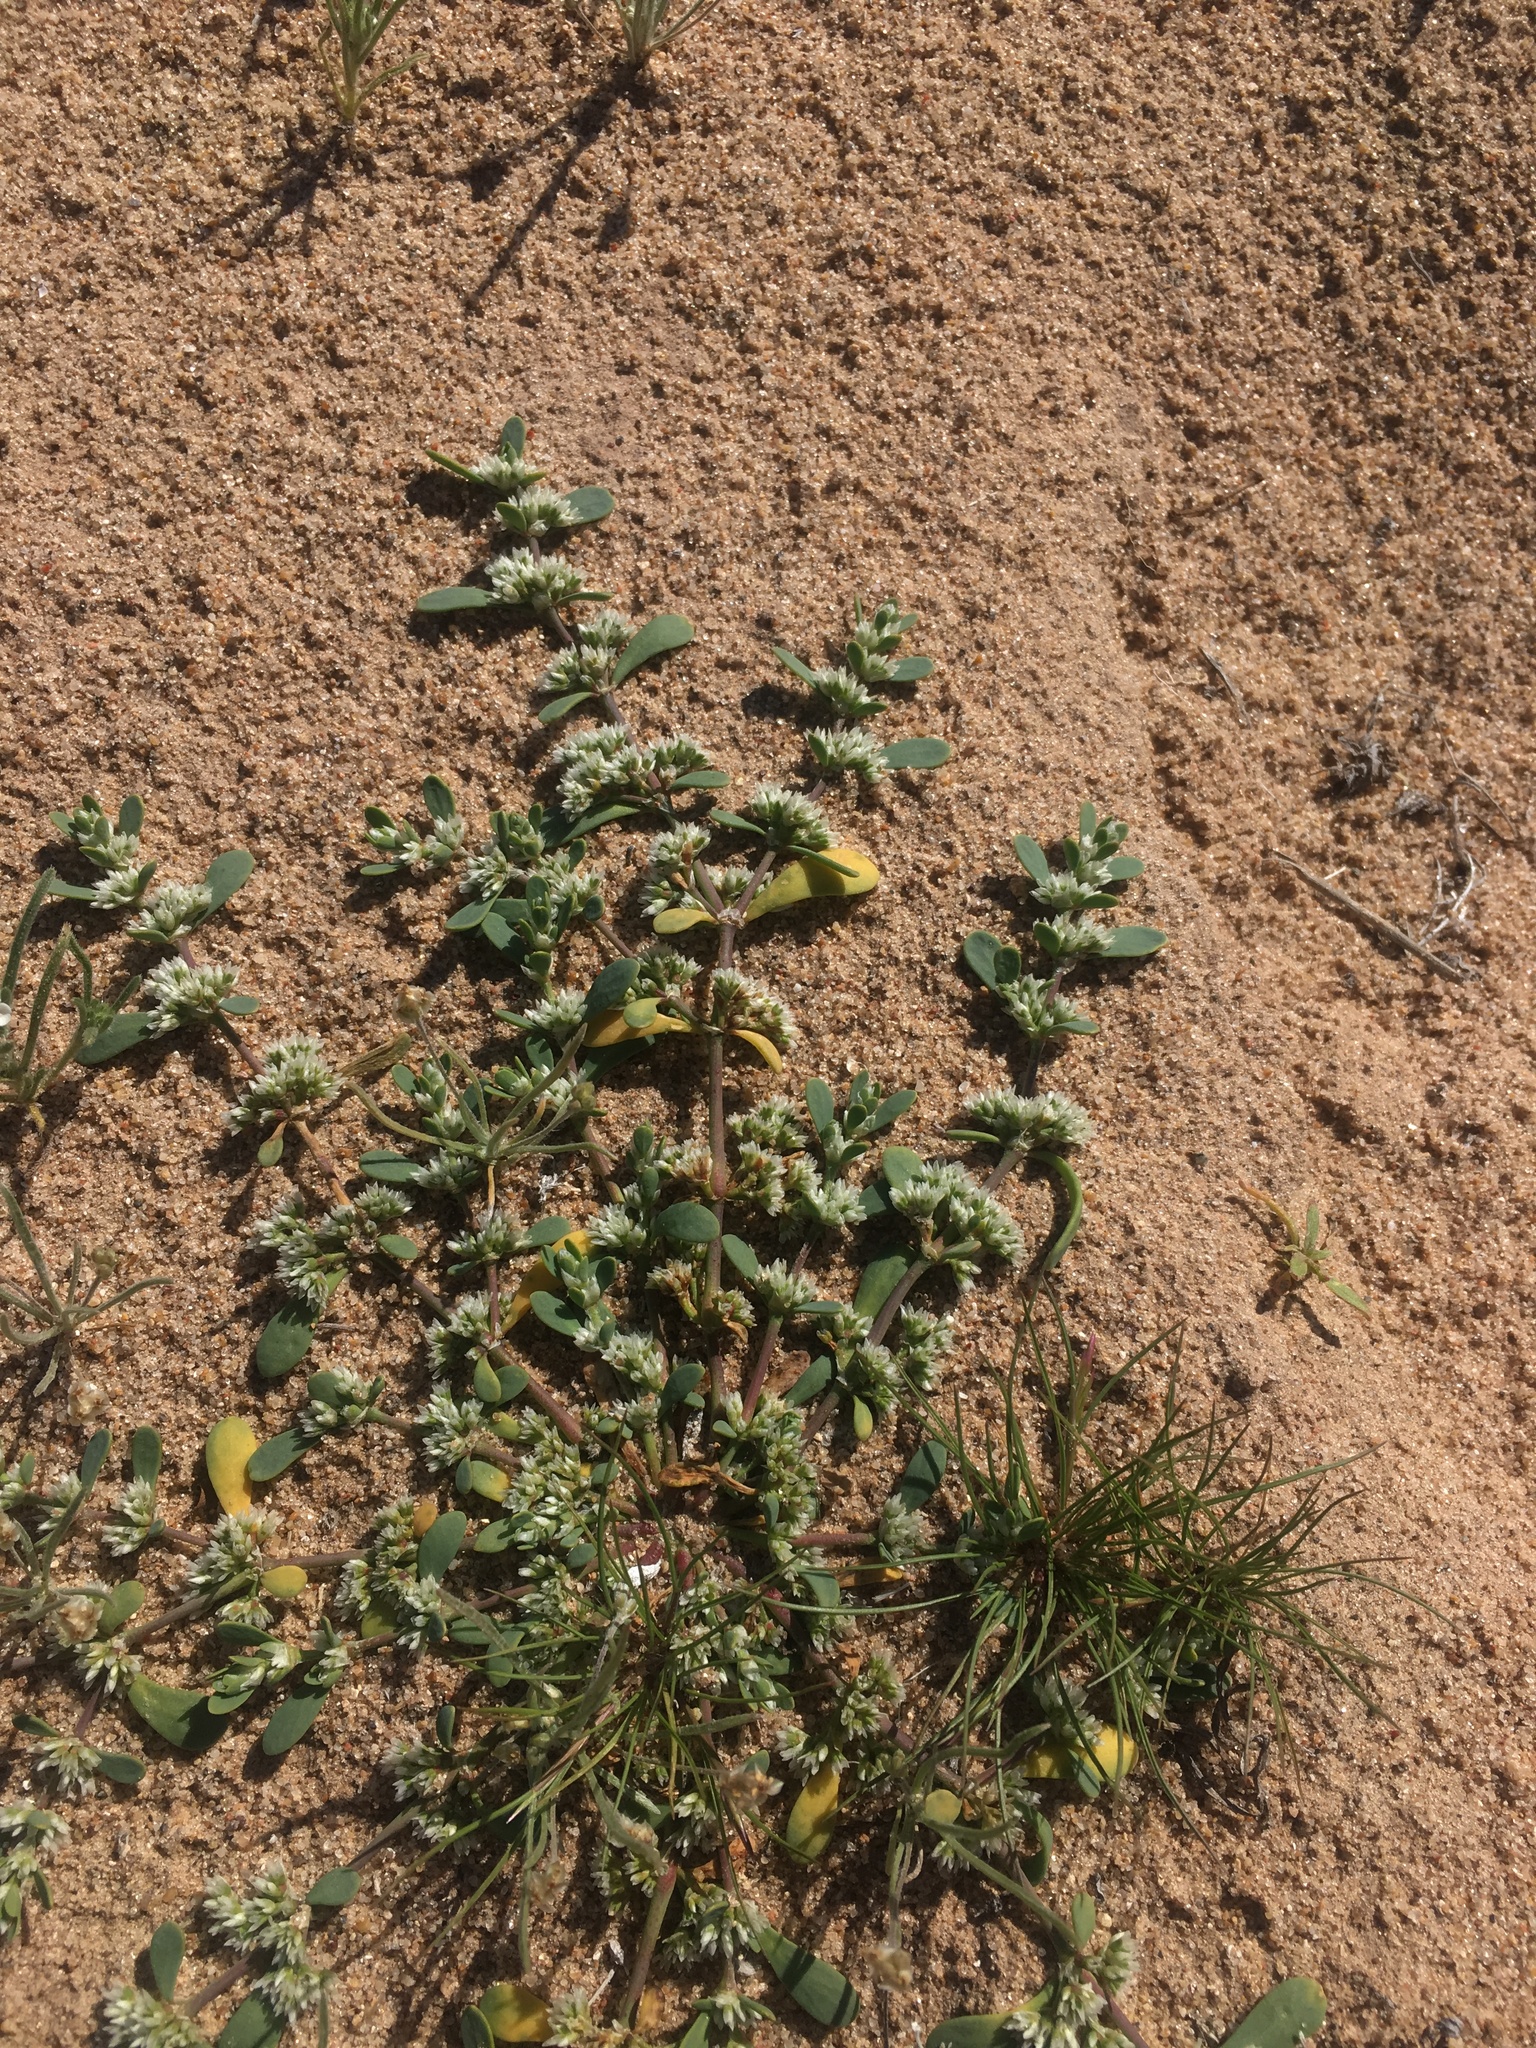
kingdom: Plantae
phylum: Tracheophyta
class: Magnoliopsida
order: Caryophyllales
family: Caryophyllaceae
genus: Achyronychia
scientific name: Achyronychia cooperi
